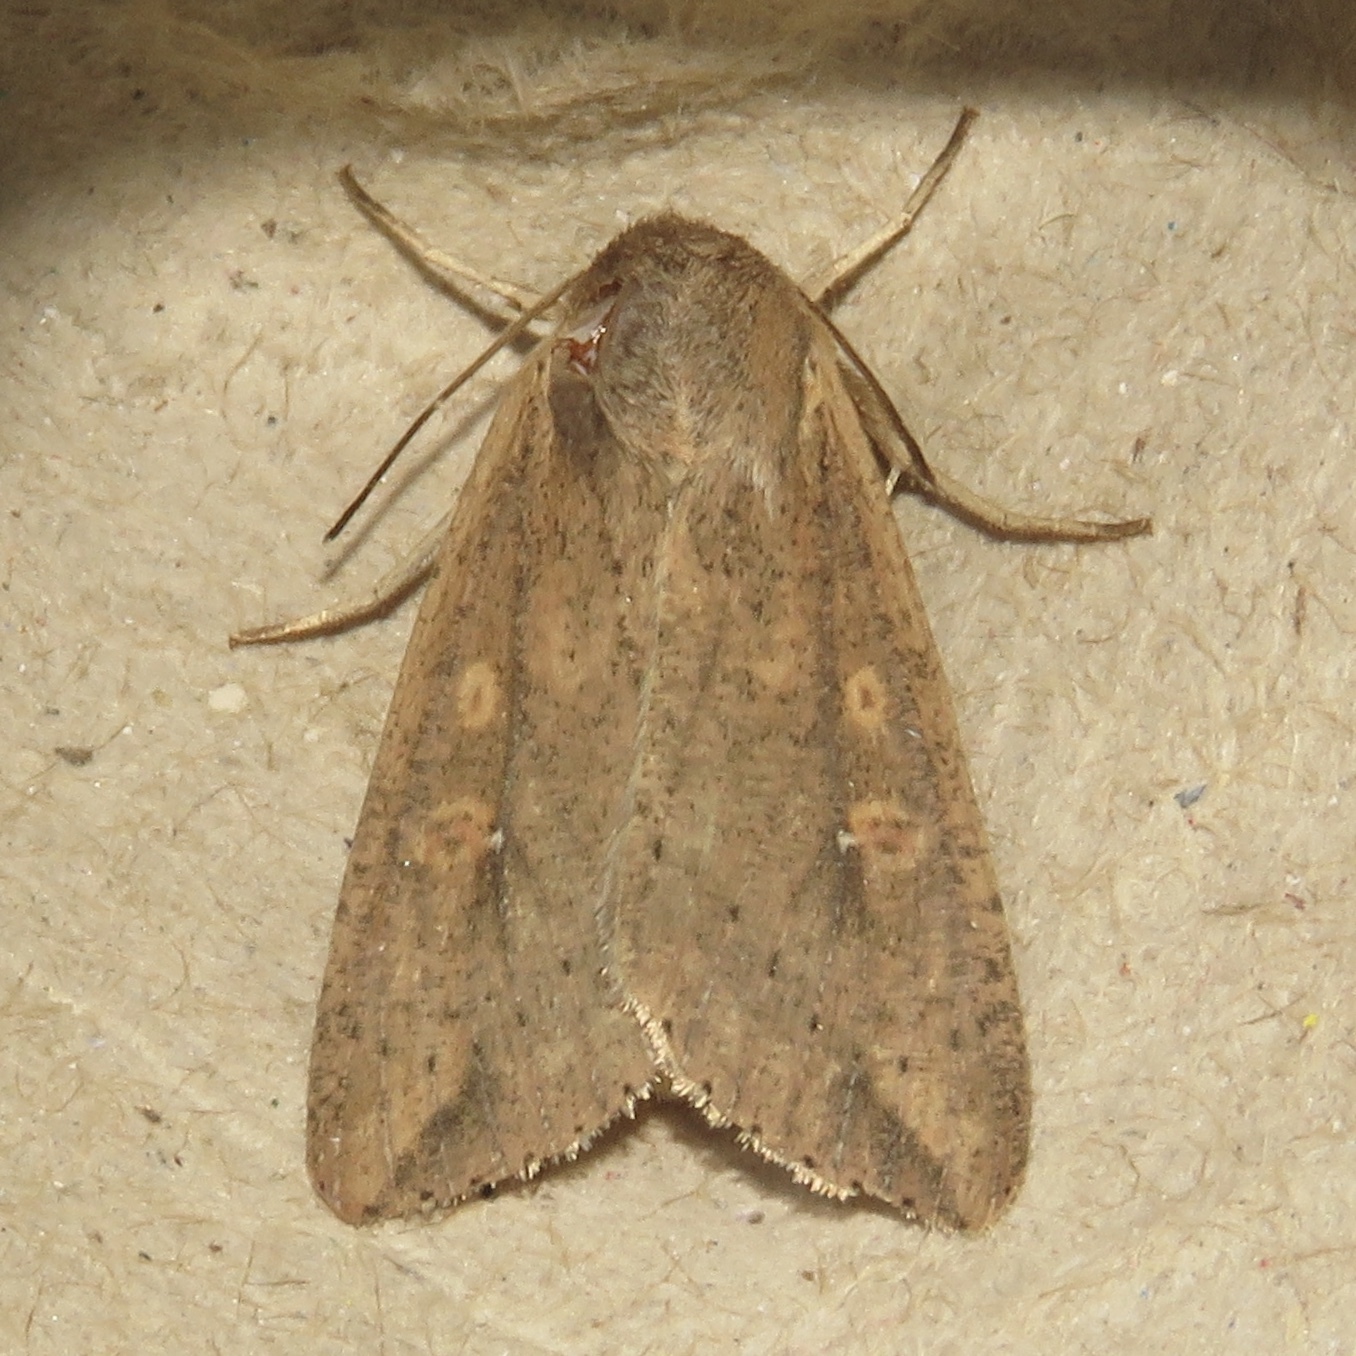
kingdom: Animalia
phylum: Arthropoda
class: Insecta
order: Lepidoptera
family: Noctuidae
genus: Mythimna
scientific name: Mythimna unipuncta
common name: White-speck
